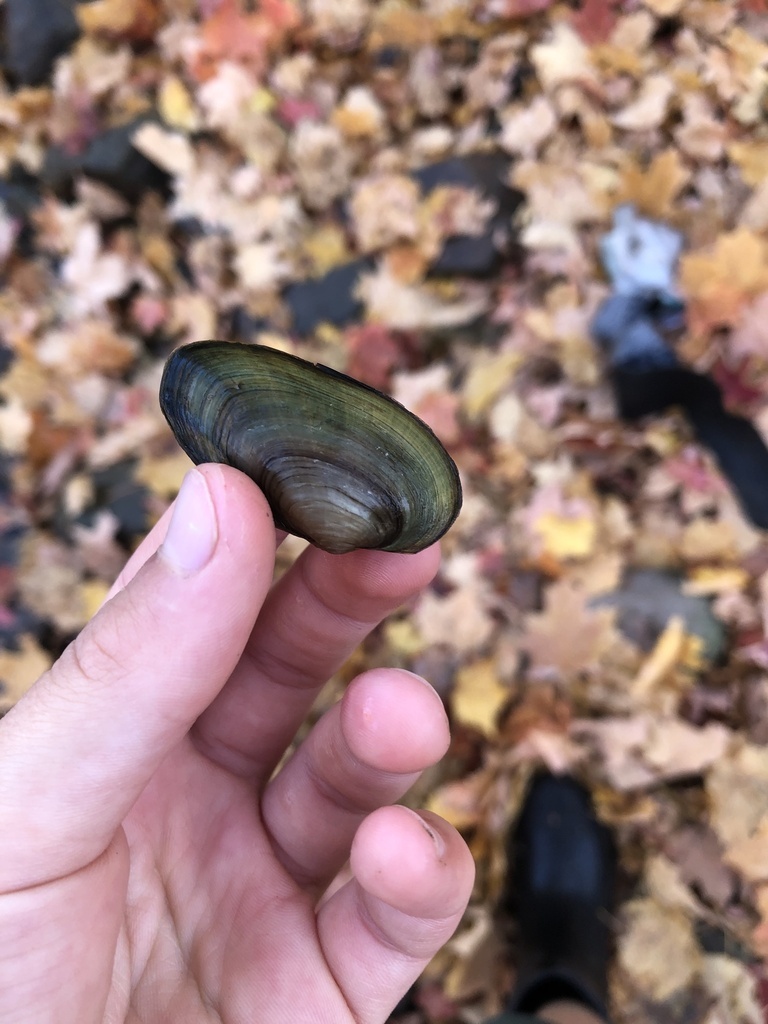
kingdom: Animalia
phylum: Mollusca
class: Bivalvia
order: Unionida
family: Unionidae
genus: Anodontoides
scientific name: Anodontoides ferussacianus
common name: Cylindrical papershell
